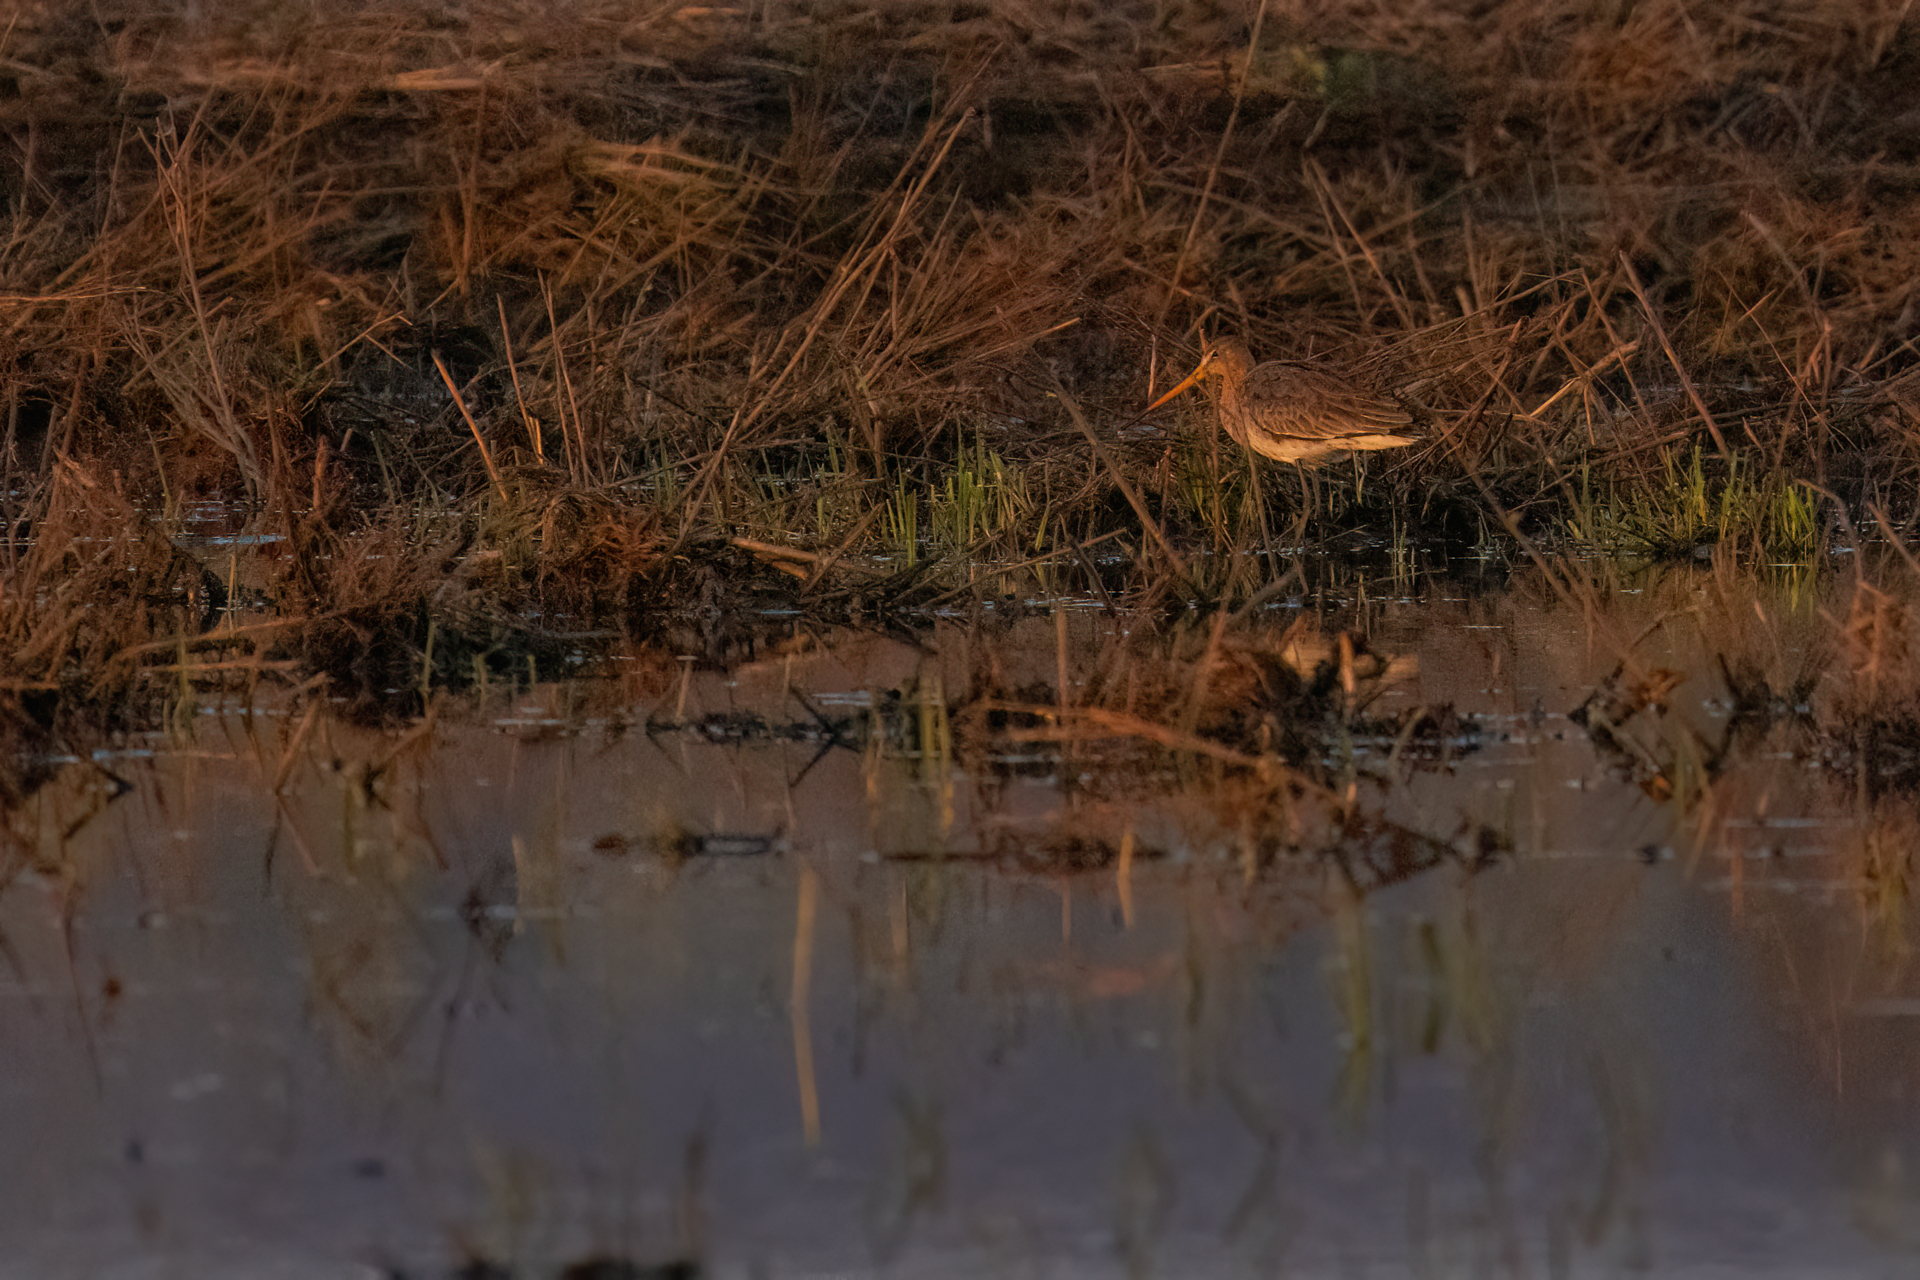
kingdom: Animalia
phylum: Chordata
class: Aves
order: Charadriiformes
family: Scolopacidae
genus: Limosa
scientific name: Limosa limosa
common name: Black-tailed godwit
